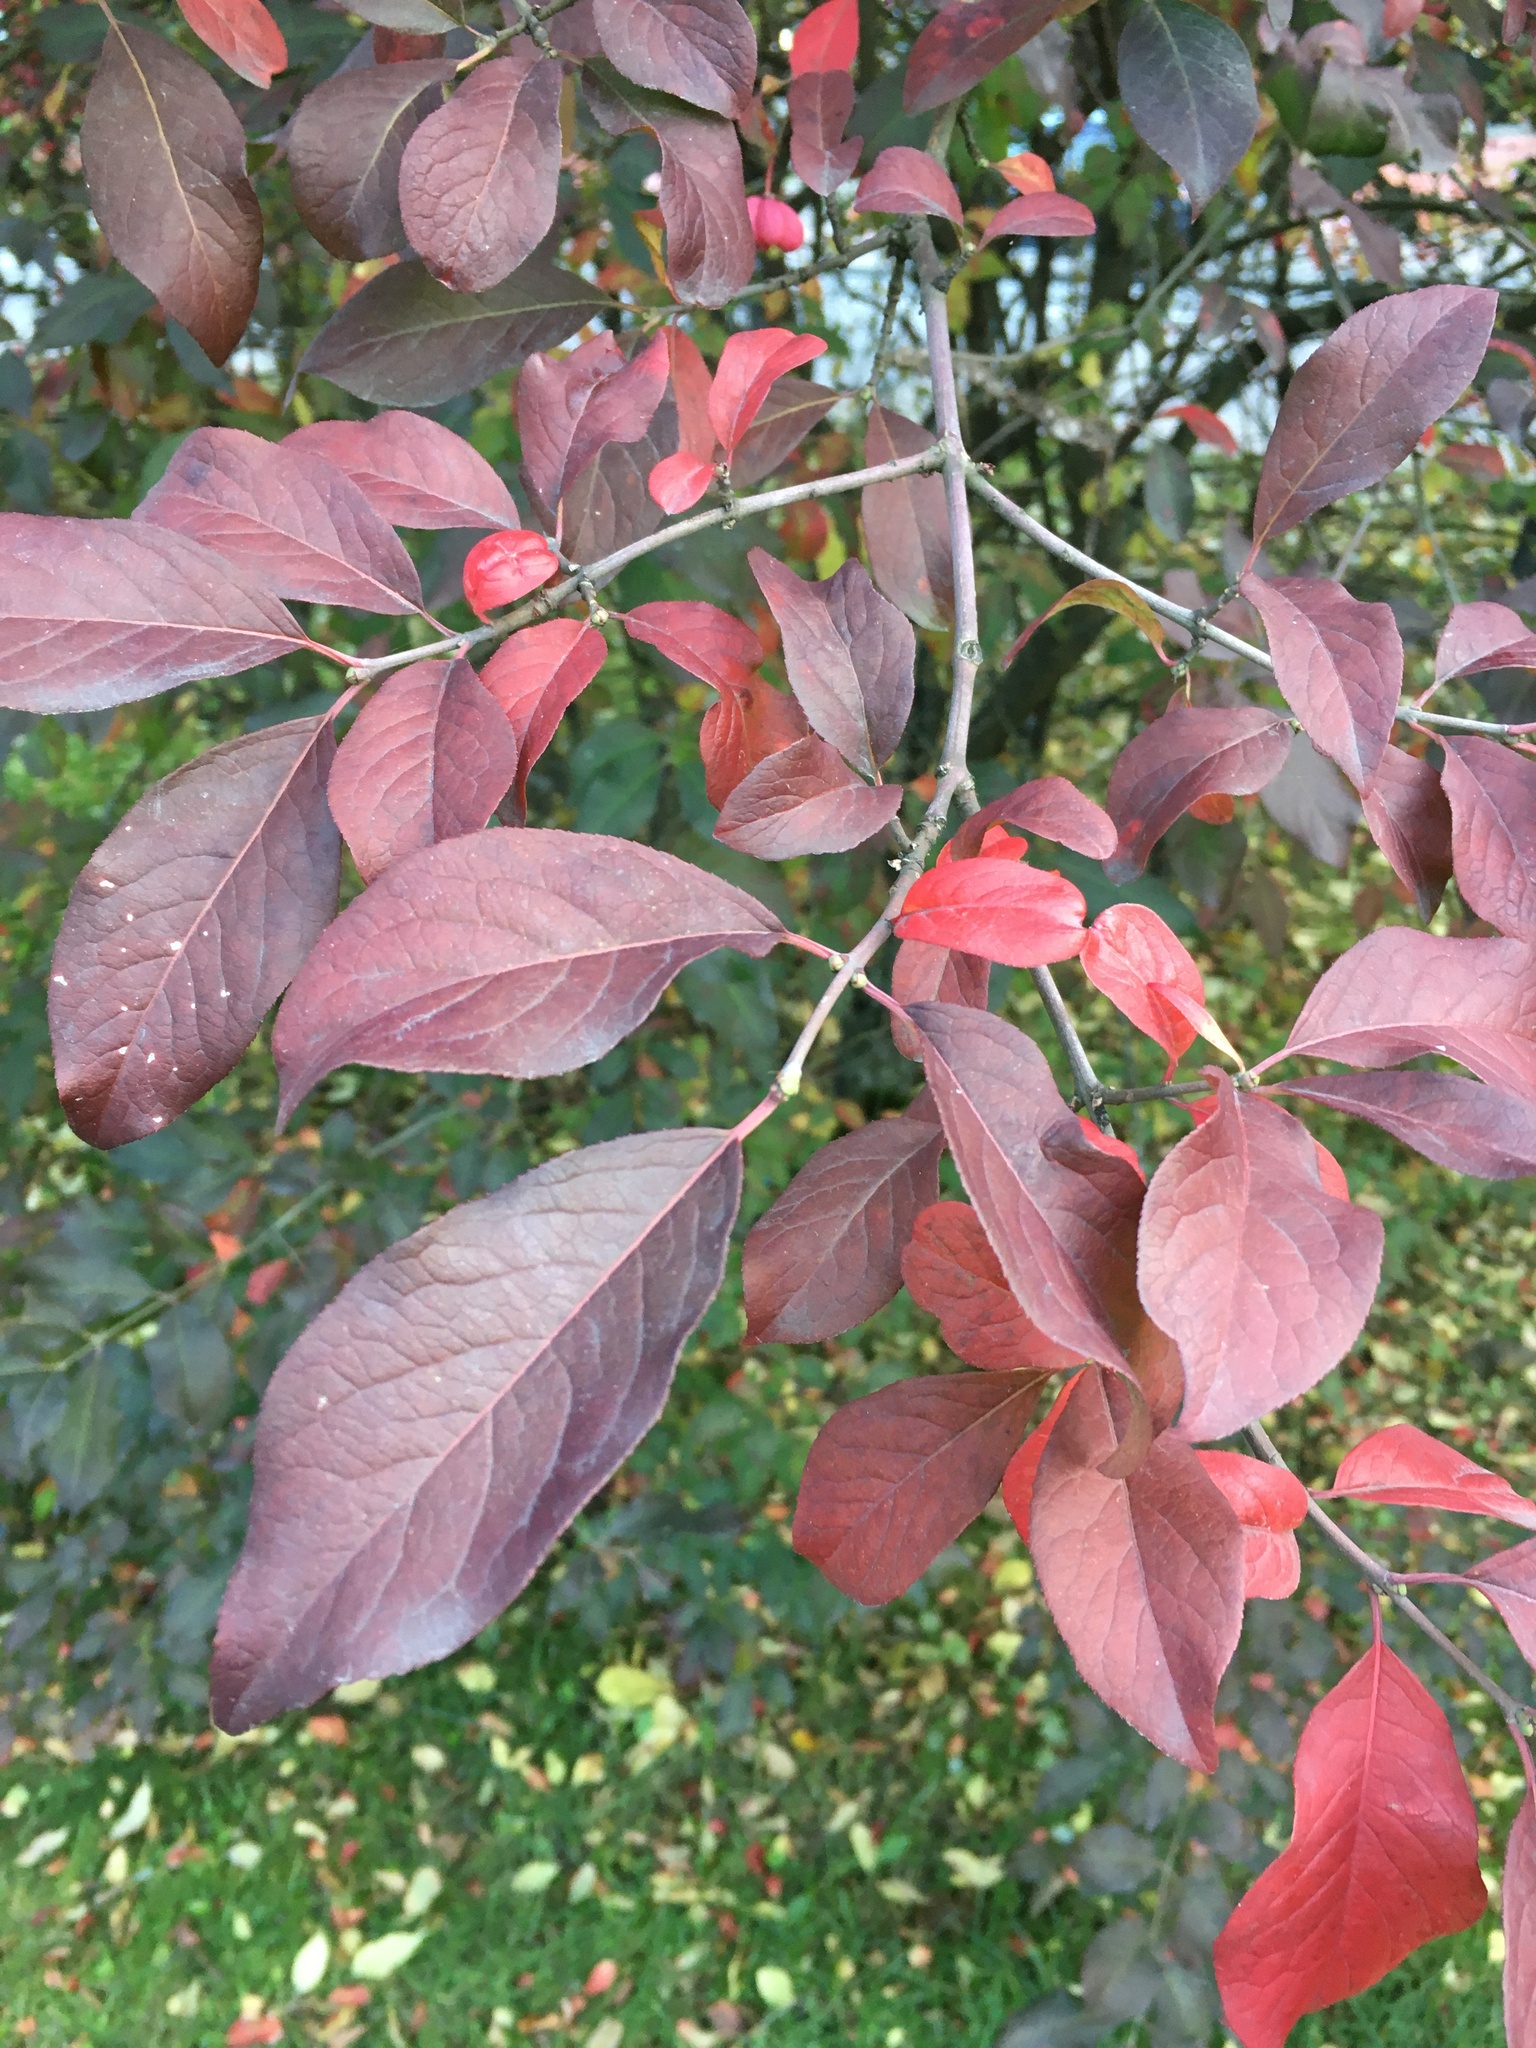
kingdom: Plantae
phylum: Tracheophyta
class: Magnoliopsida
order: Celastrales
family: Celastraceae
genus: Euonymus
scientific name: Euonymus europaeus
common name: Spindle
